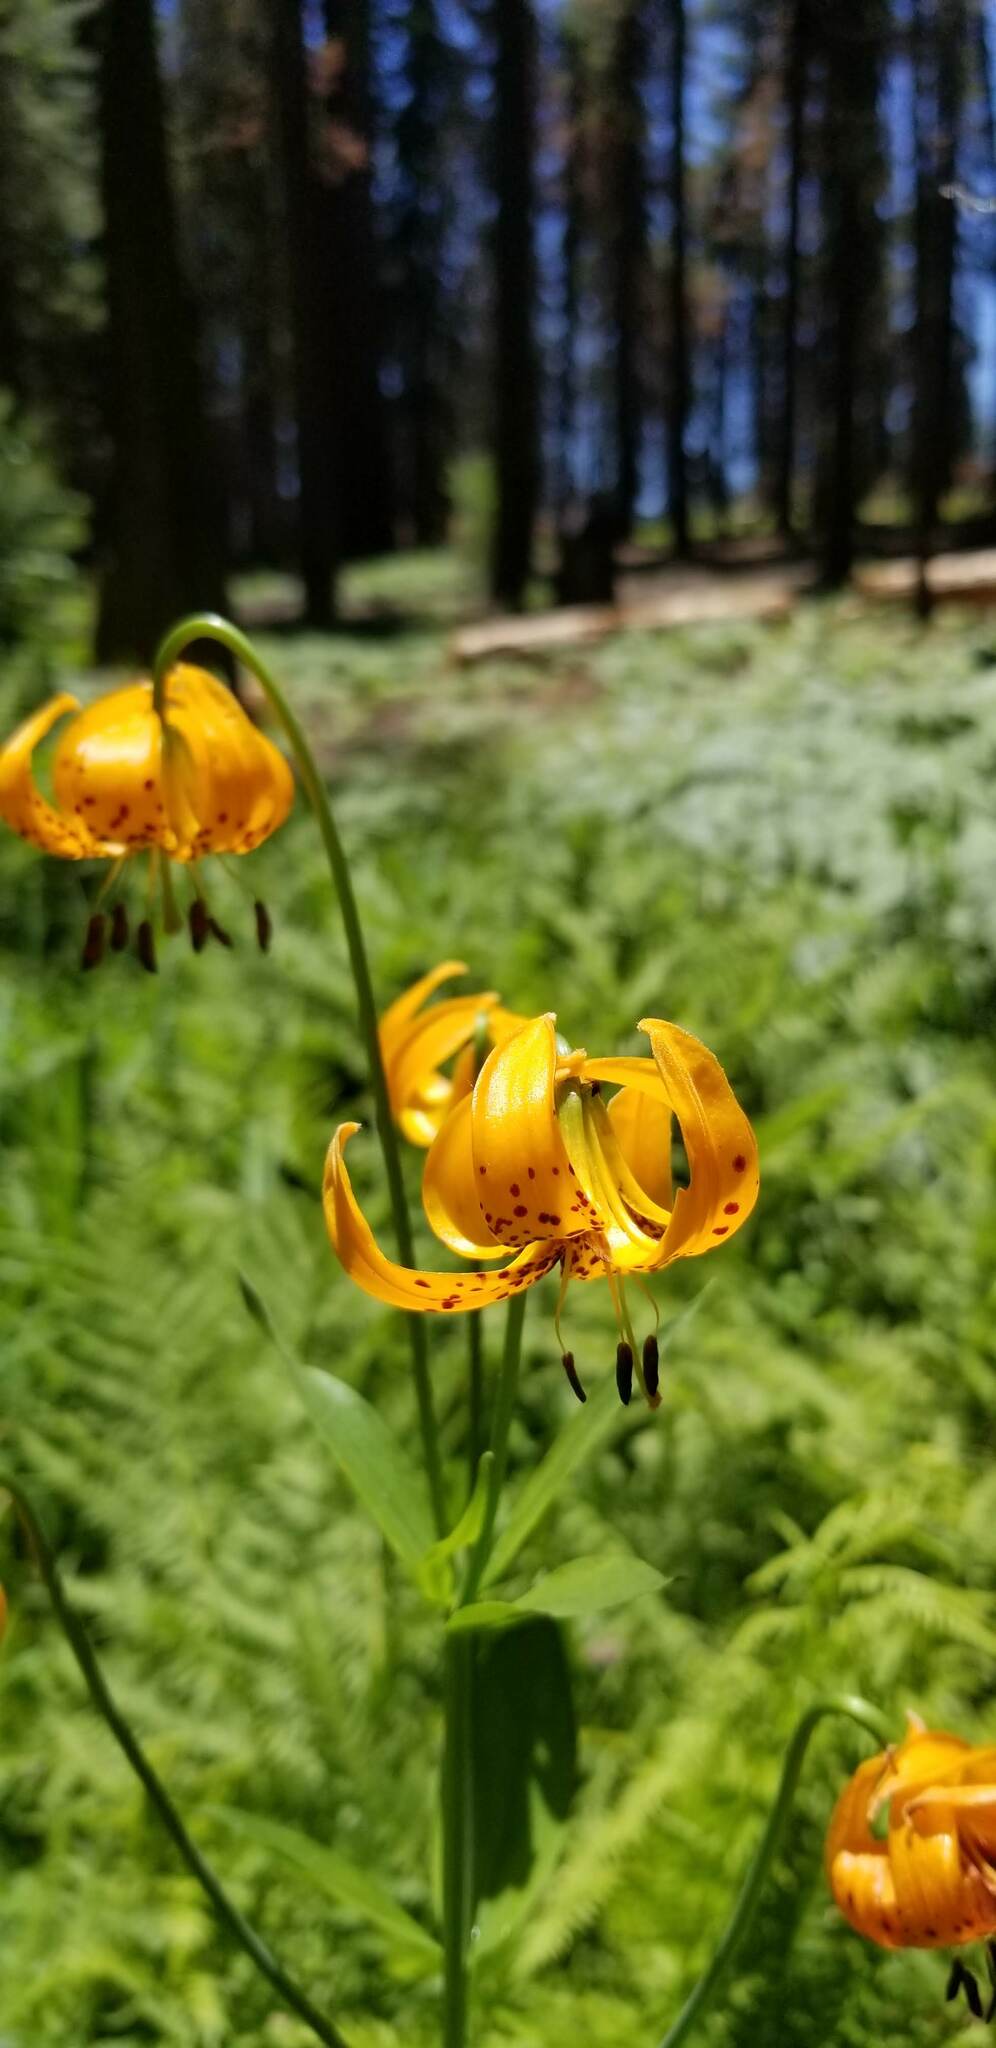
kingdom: Plantae
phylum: Tracheophyta
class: Liliopsida
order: Liliales
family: Liliaceae
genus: Lilium
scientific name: Lilium kelleyanum
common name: Kelley's lily
